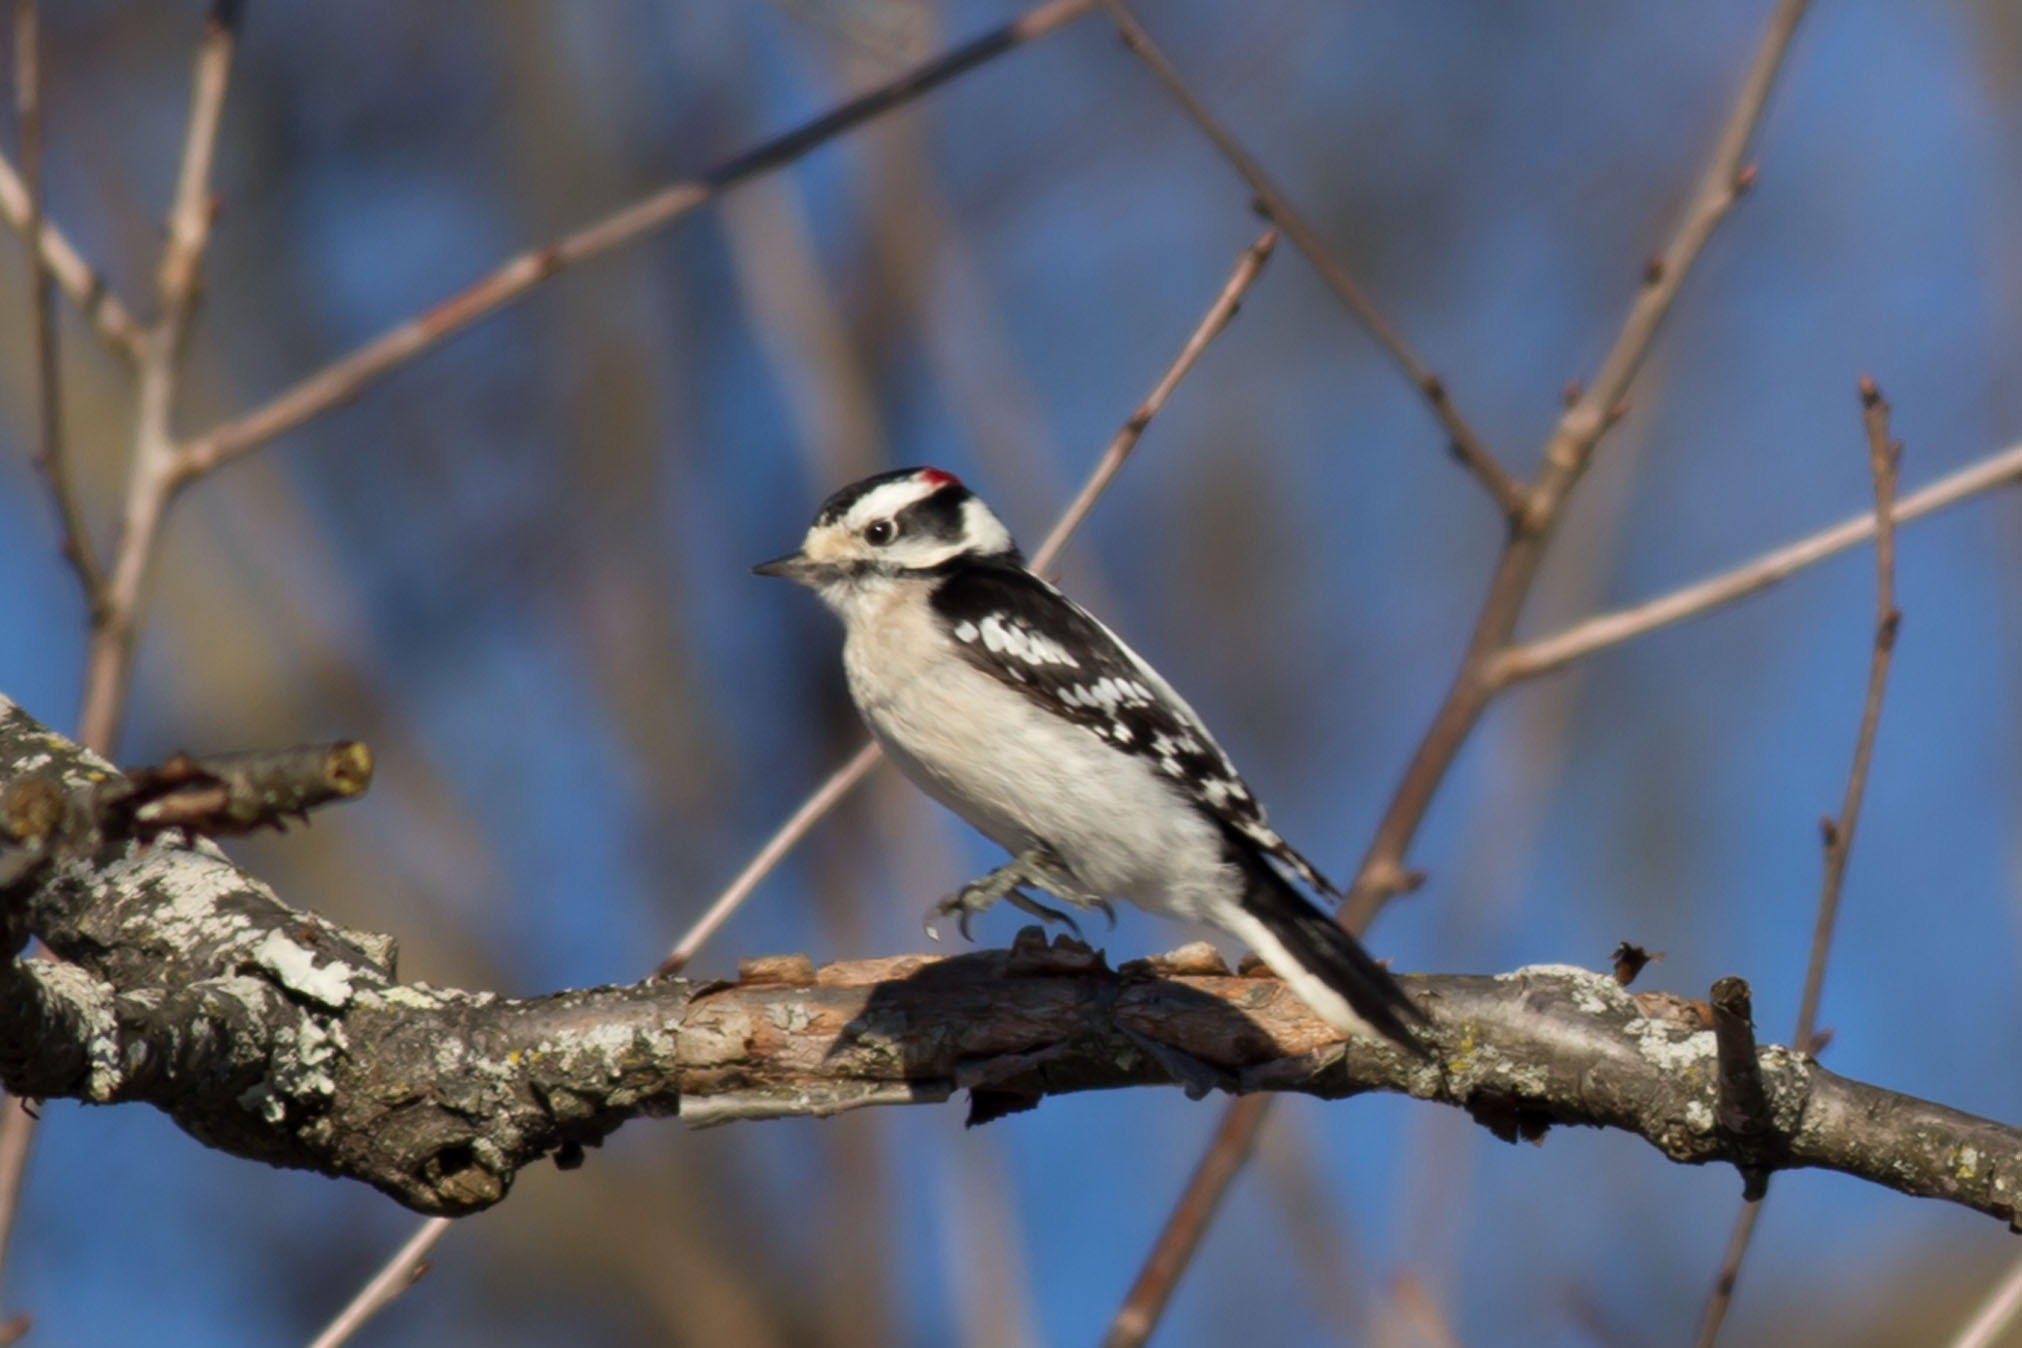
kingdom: Animalia
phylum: Chordata
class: Aves
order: Piciformes
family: Picidae
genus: Dryobates
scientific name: Dryobates pubescens
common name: Downy woodpecker
